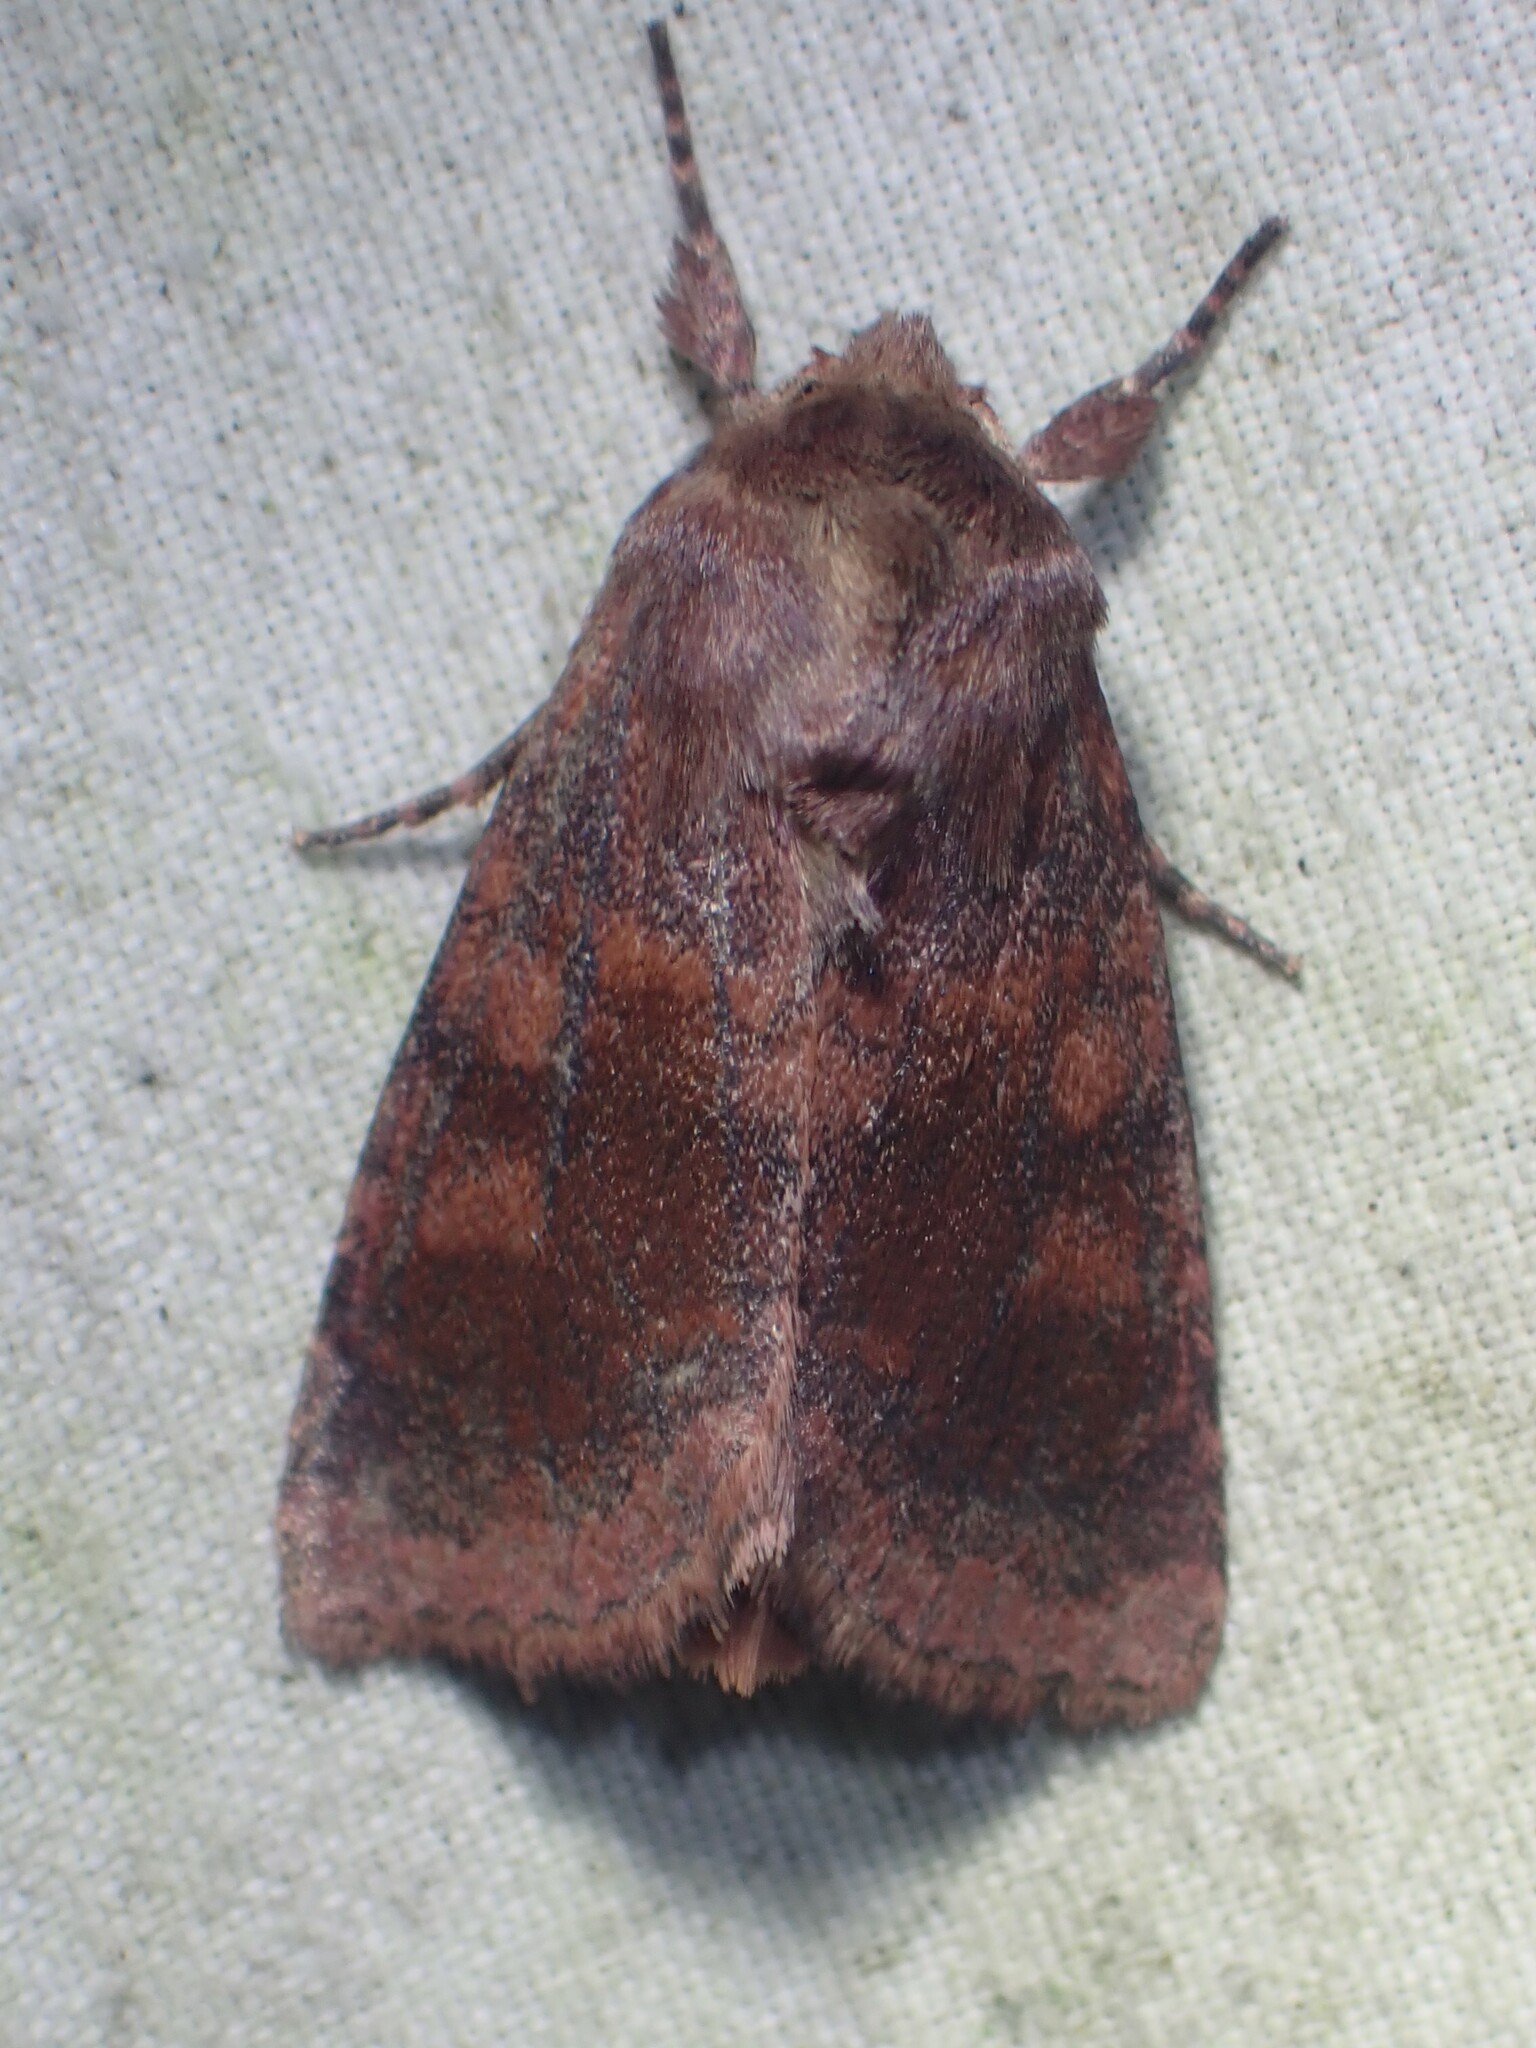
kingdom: Animalia
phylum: Arthropoda
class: Insecta
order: Lepidoptera
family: Noctuidae
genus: Nephelodes
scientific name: Nephelodes minians
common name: Bronzed cutworm
